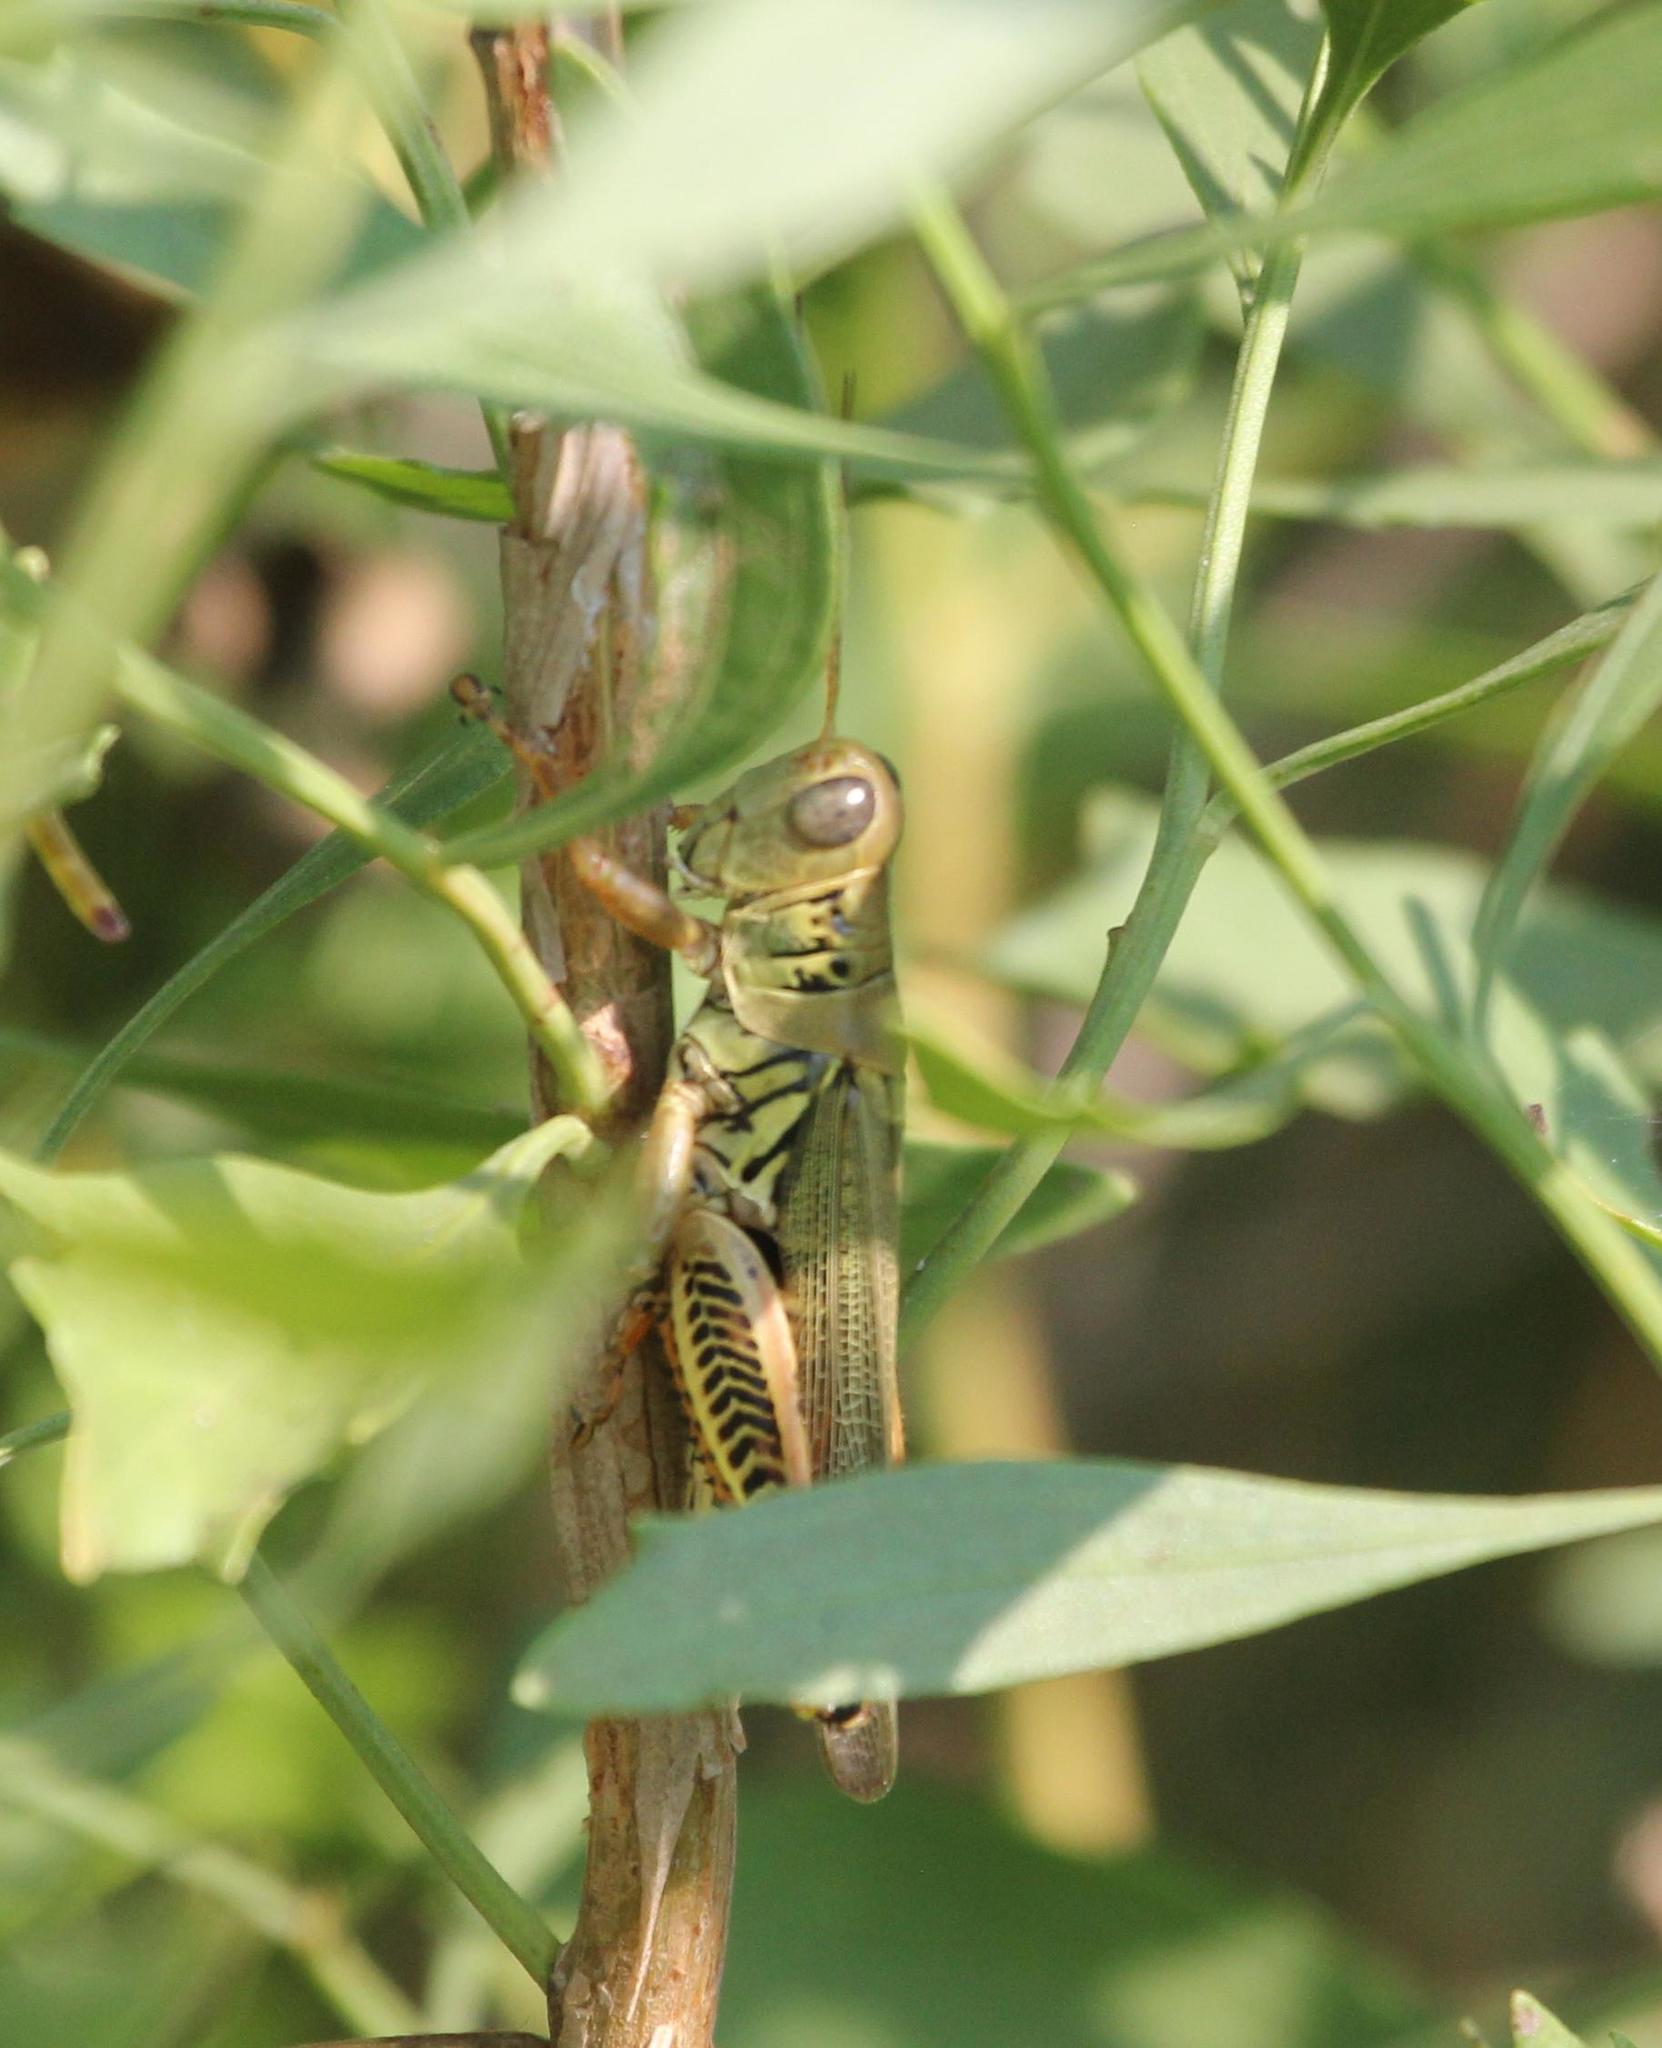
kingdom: Animalia
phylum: Arthropoda
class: Insecta
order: Orthoptera
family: Acrididae
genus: Melanoplus
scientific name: Melanoplus differentialis
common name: Differential grasshopper
